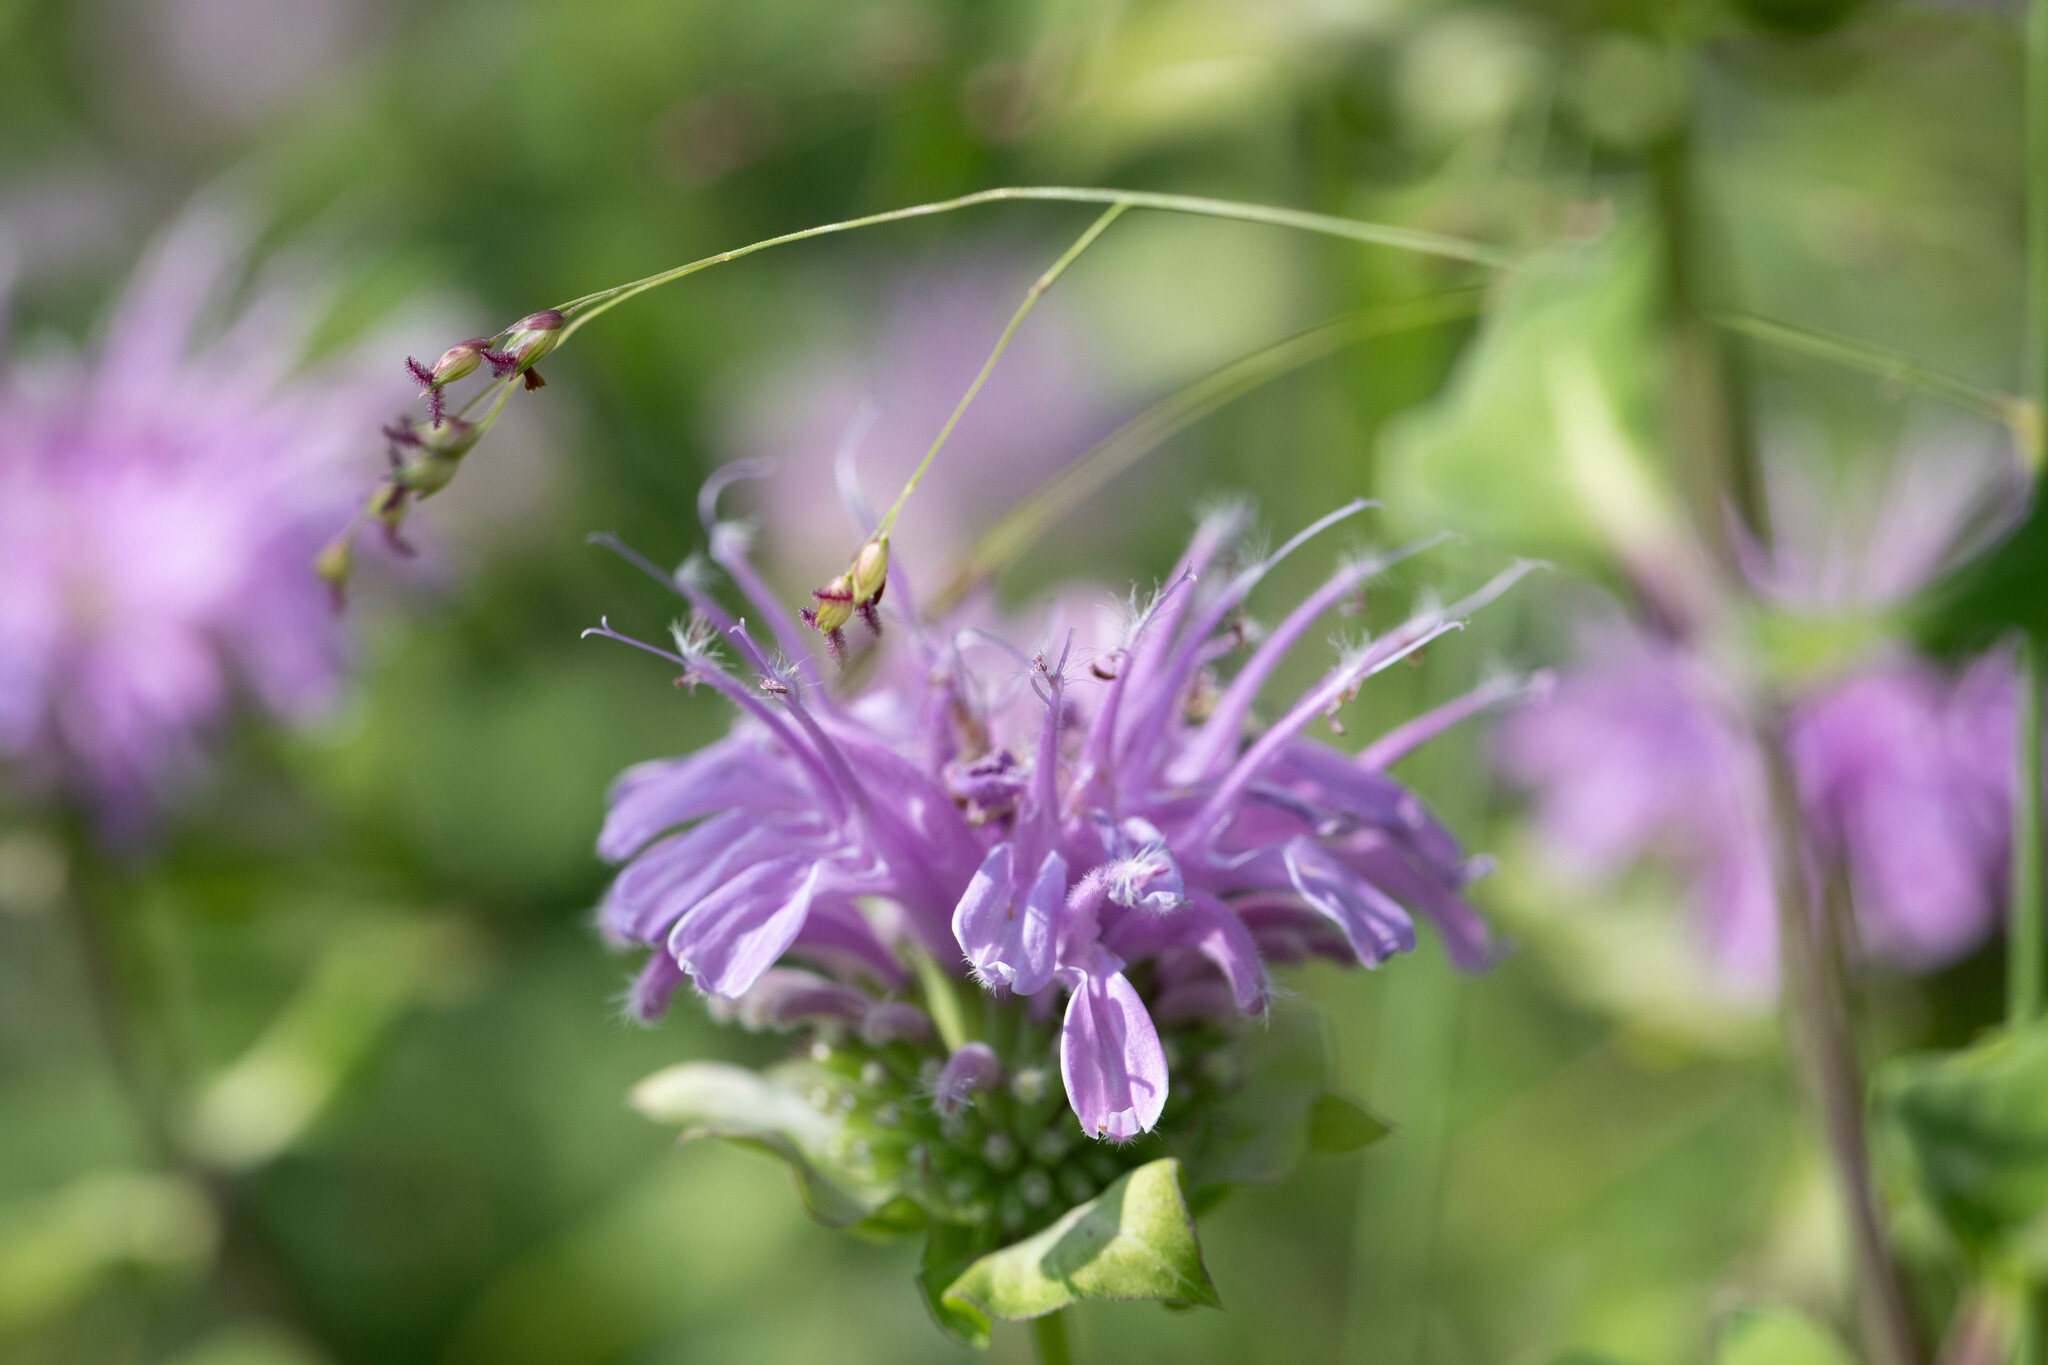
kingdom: Plantae
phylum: Tracheophyta
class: Magnoliopsida
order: Lamiales
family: Lamiaceae
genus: Monarda
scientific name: Monarda fistulosa
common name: Purple beebalm
